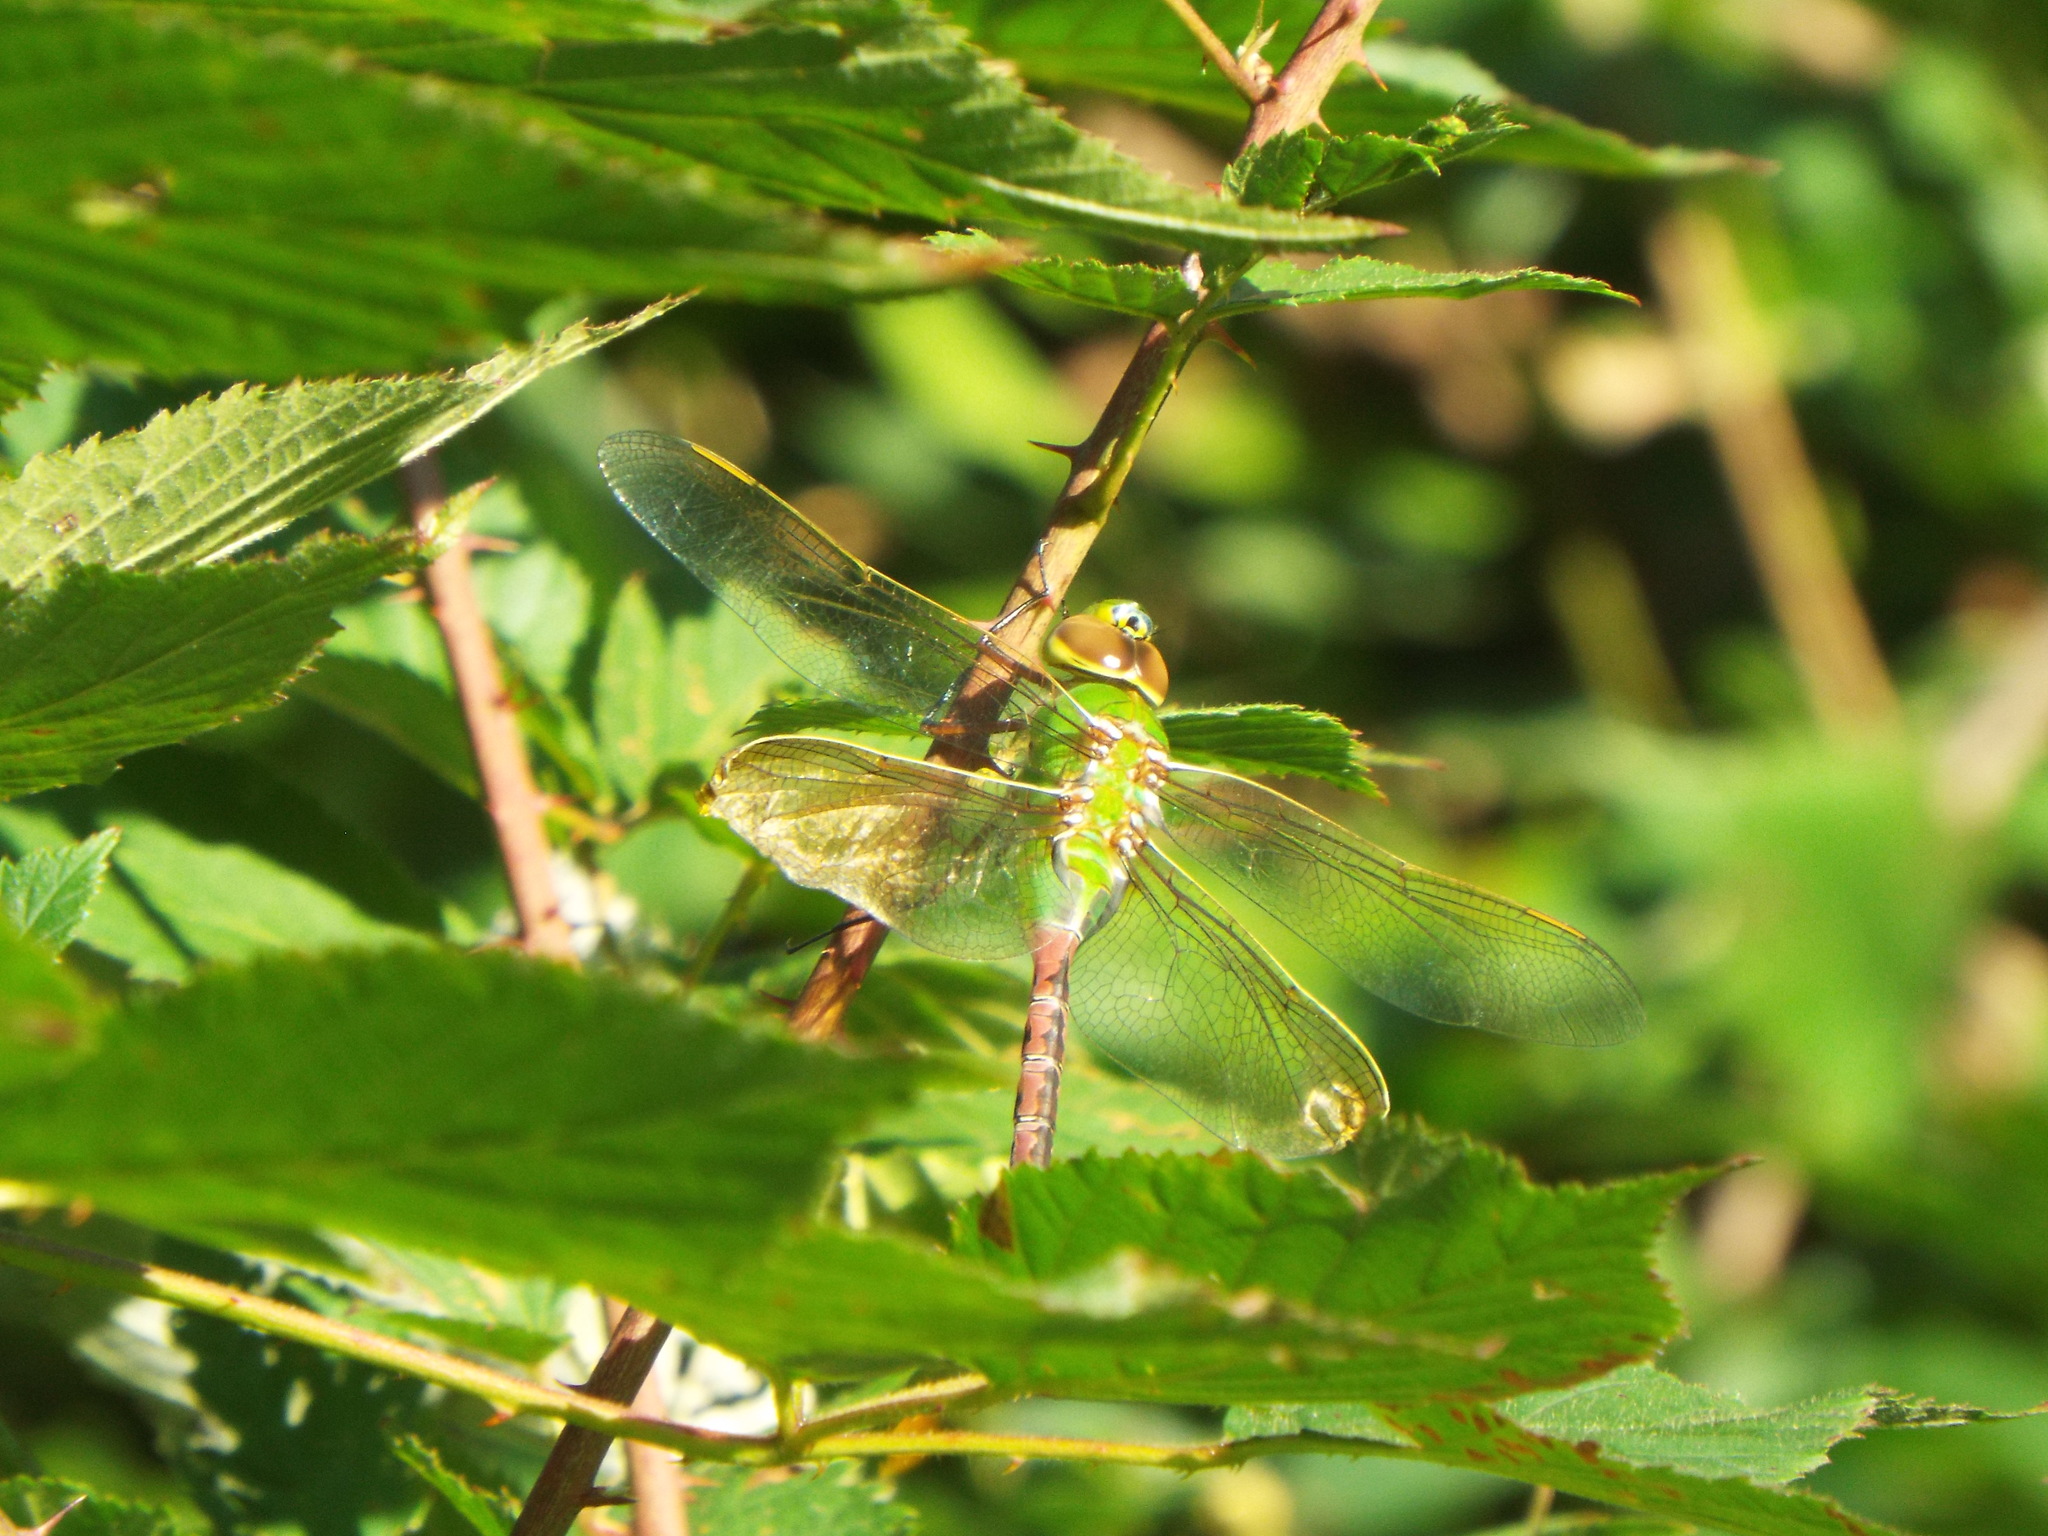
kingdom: Animalia
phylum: Arthropoda
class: Insecta
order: Odonata
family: Aeshnidae
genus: Anax
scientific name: Anax junius
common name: Common green darner
